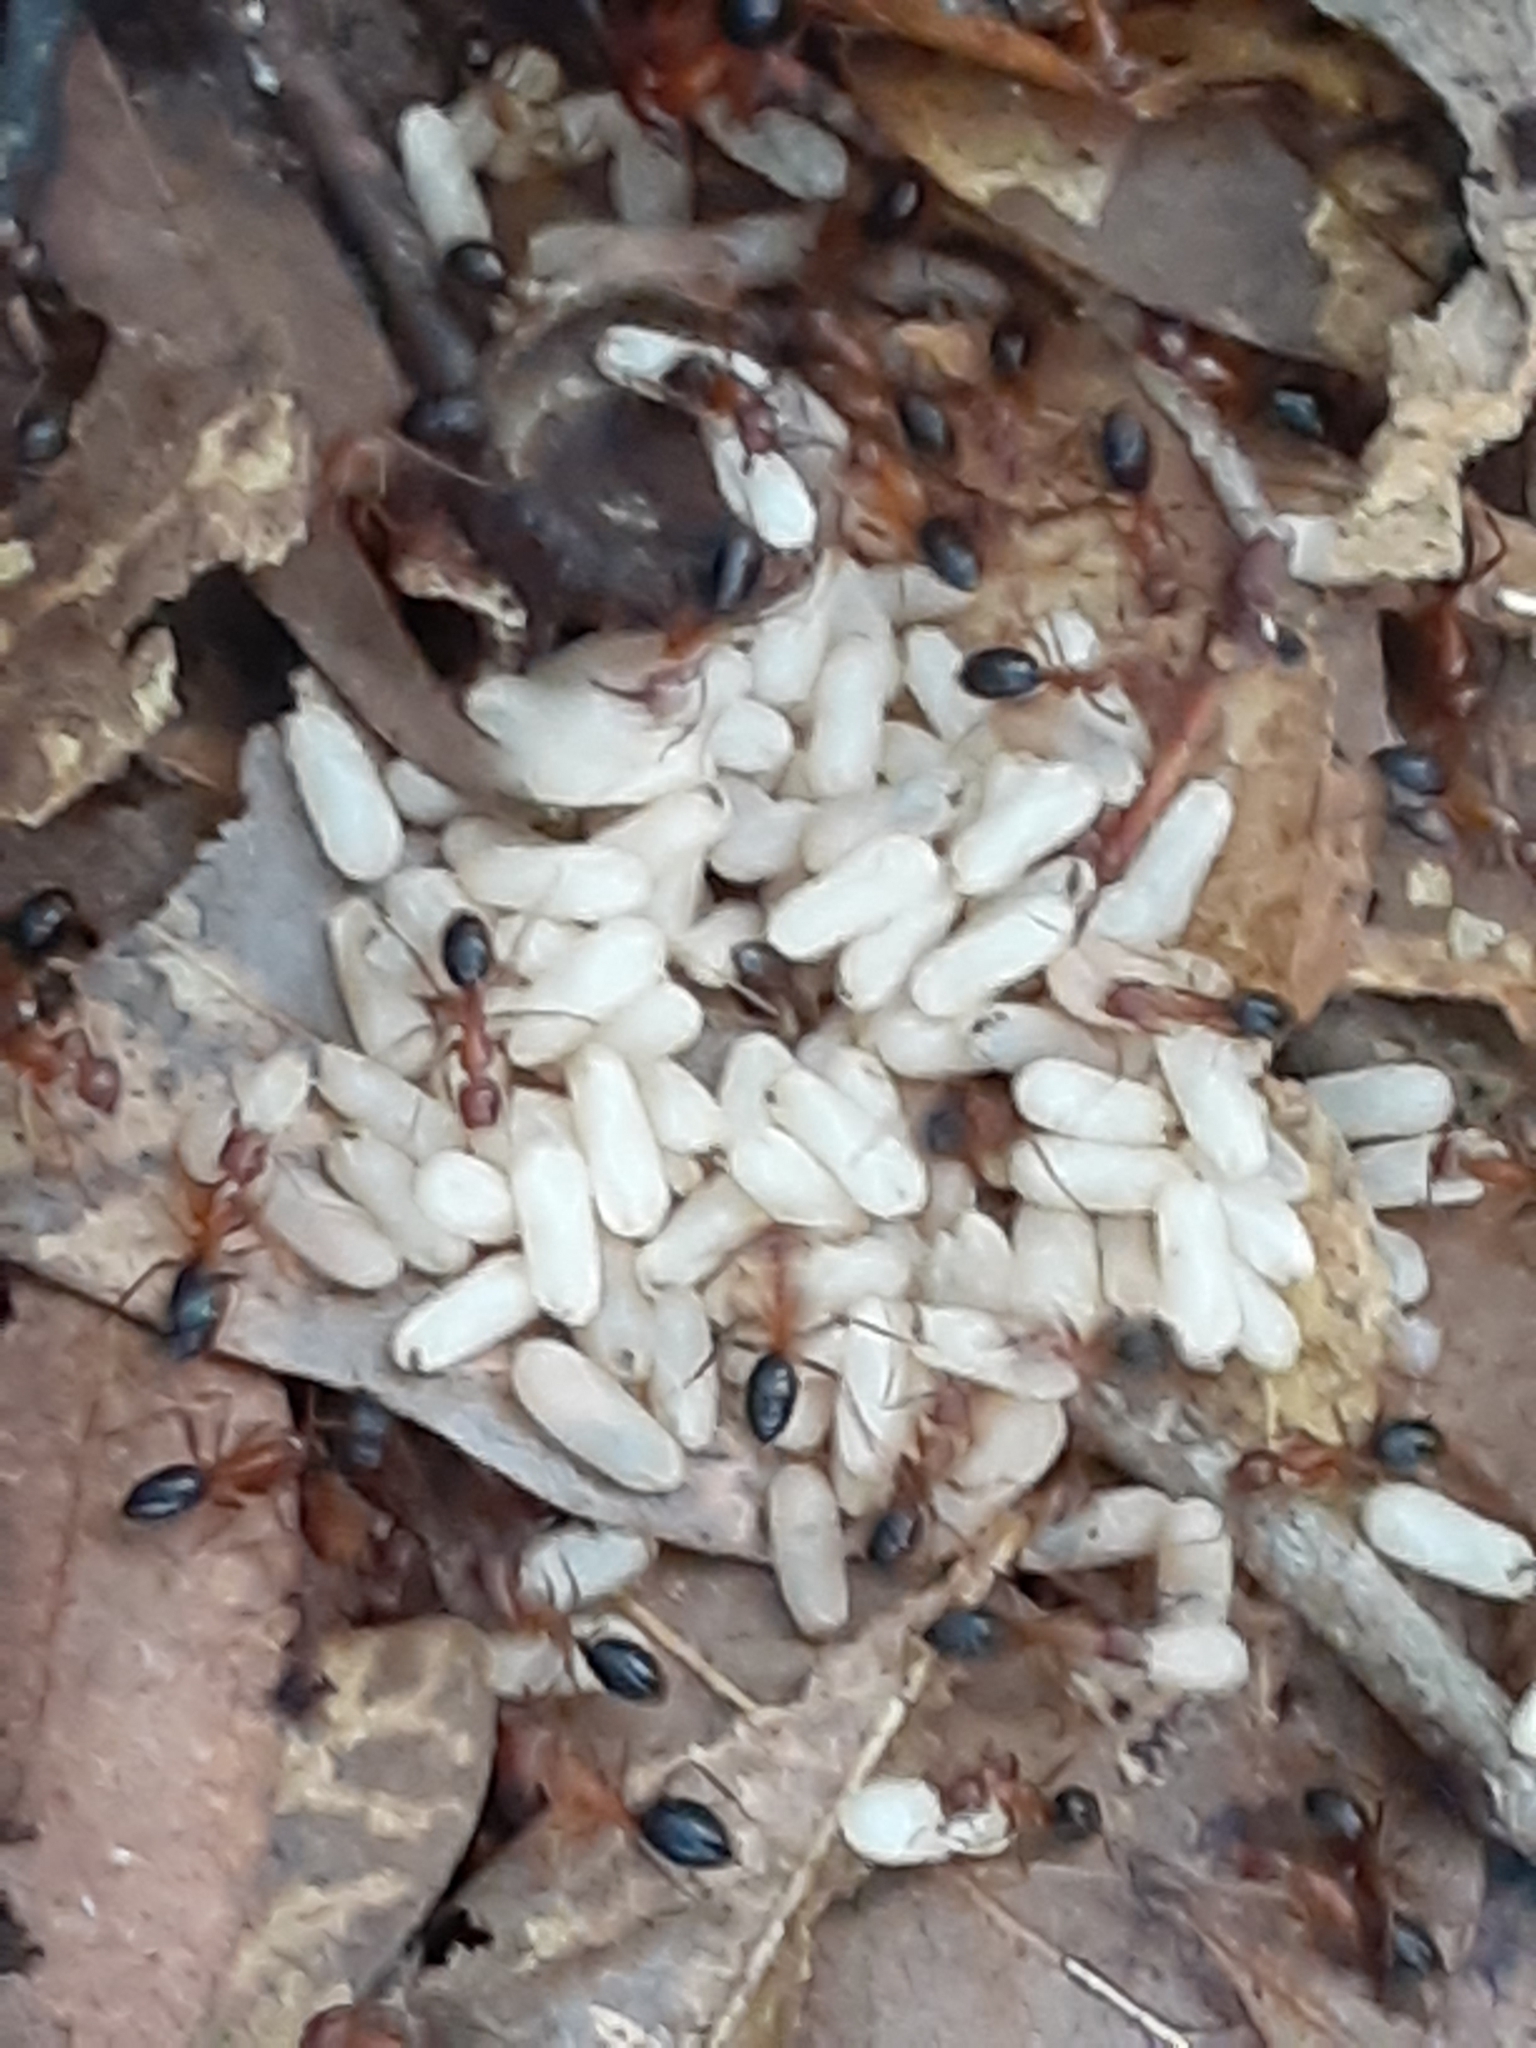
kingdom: Animalia
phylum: Arthropoda
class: Insecta
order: Hymenoptera
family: Formicidae
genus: Camponotus
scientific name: Camponotus floridanus
